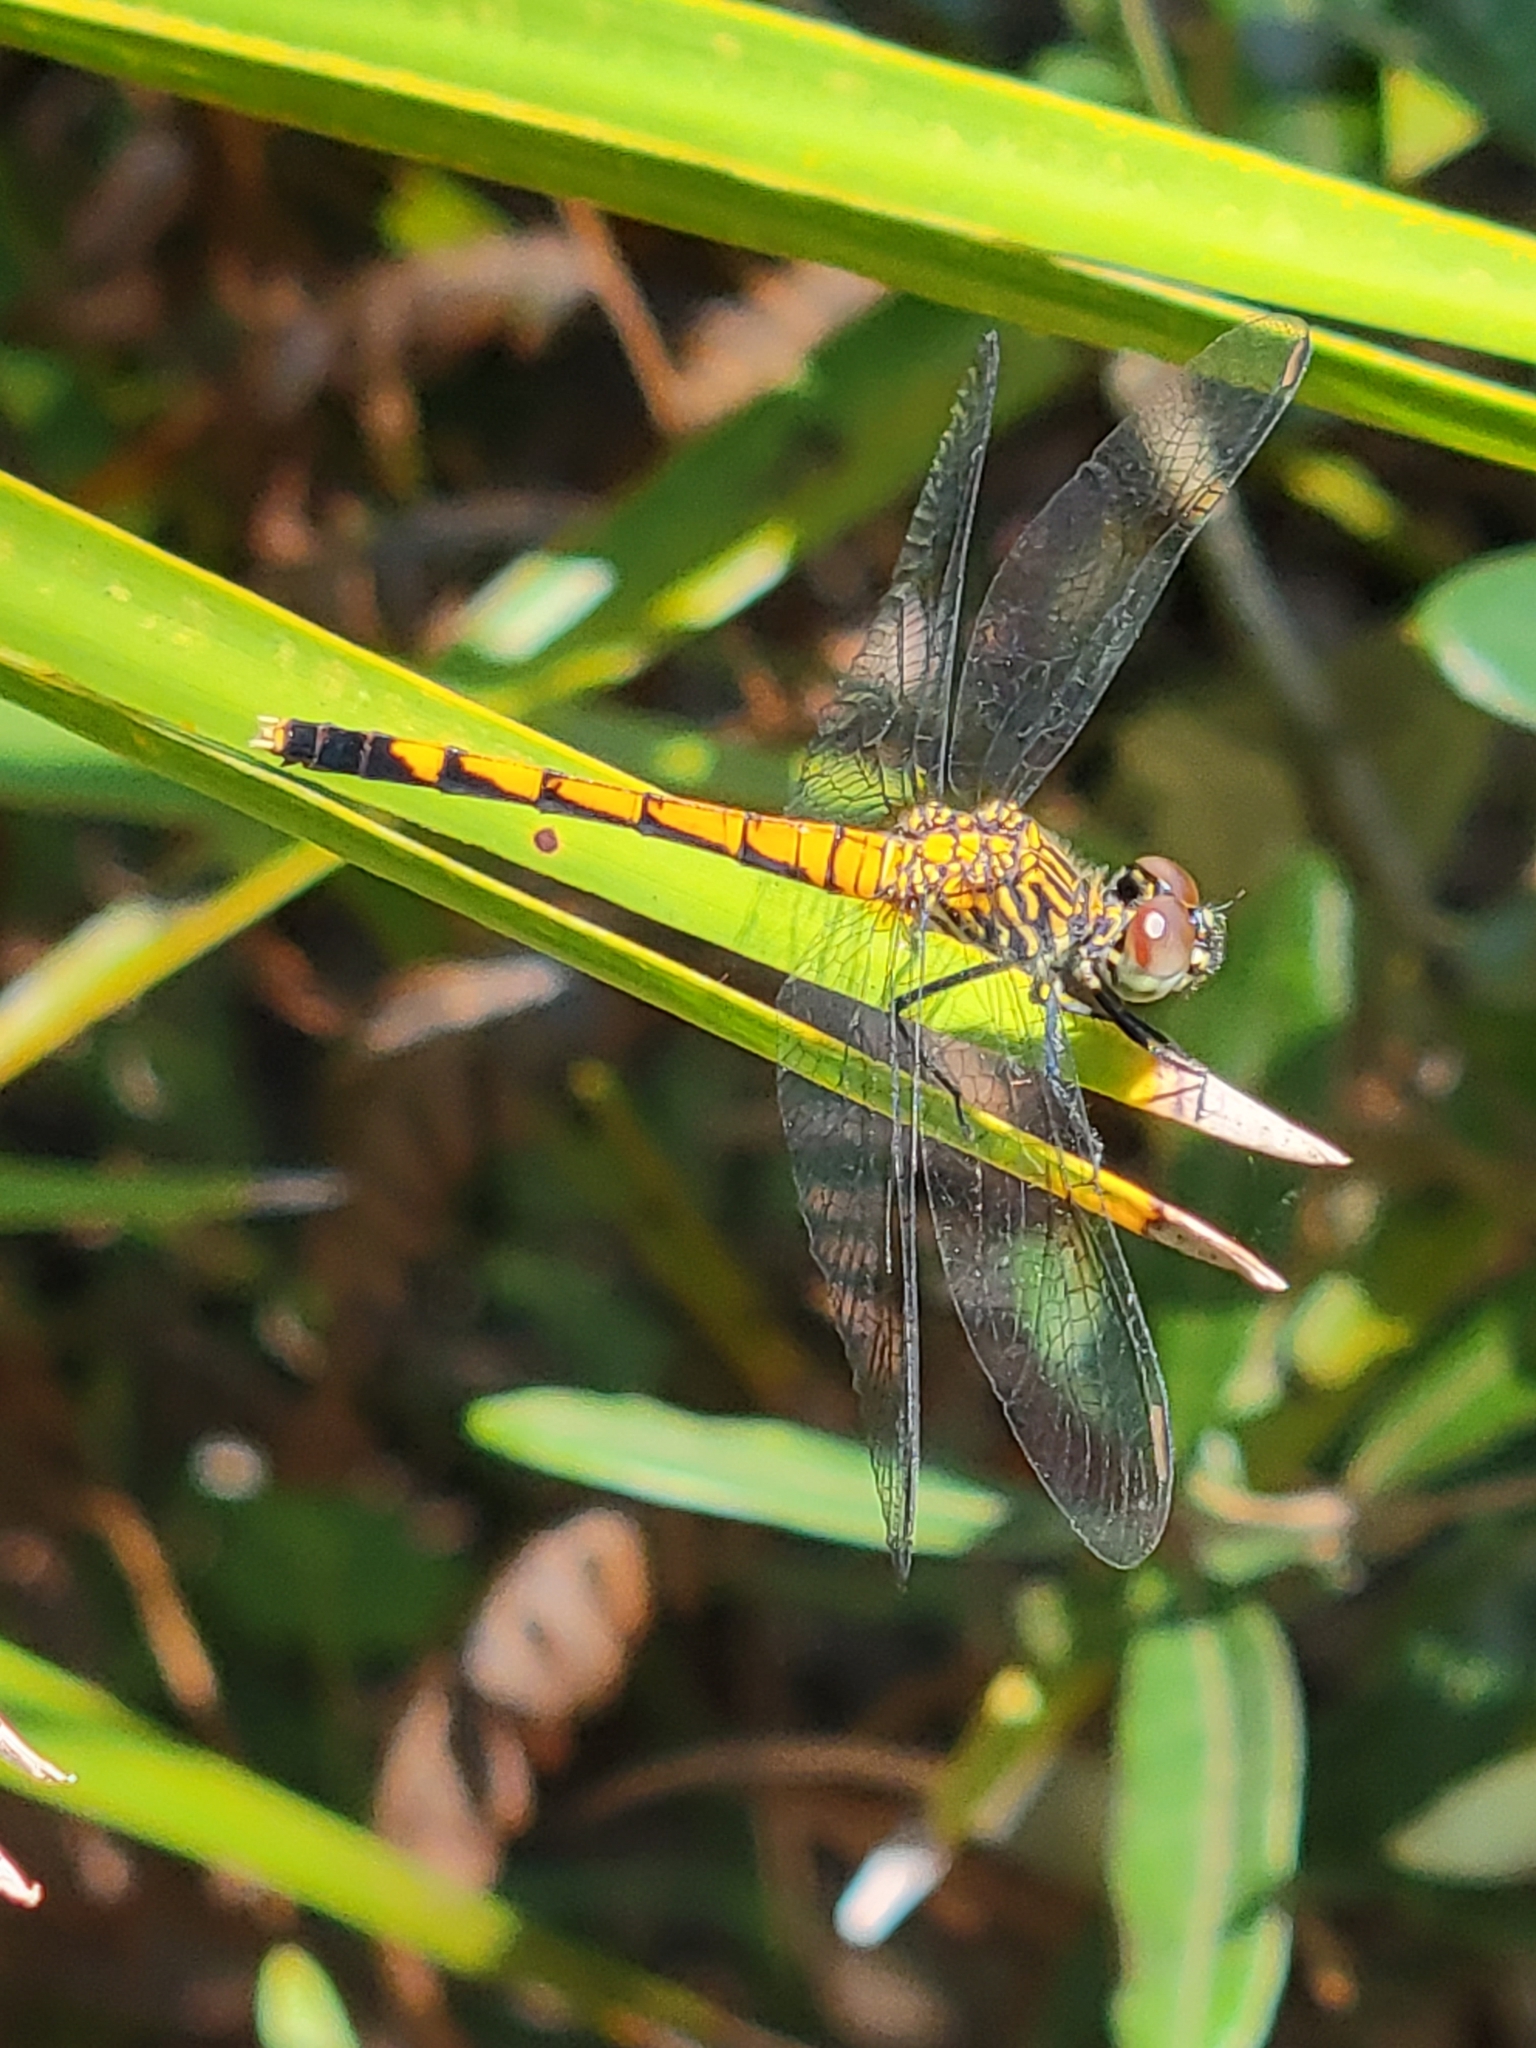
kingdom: Animalia
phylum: Arthropoda
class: Insecta
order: Odonata
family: Libellulidae
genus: Erythrodiplax
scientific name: Erythrodiplax berenice
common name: Seaside dragonlet
